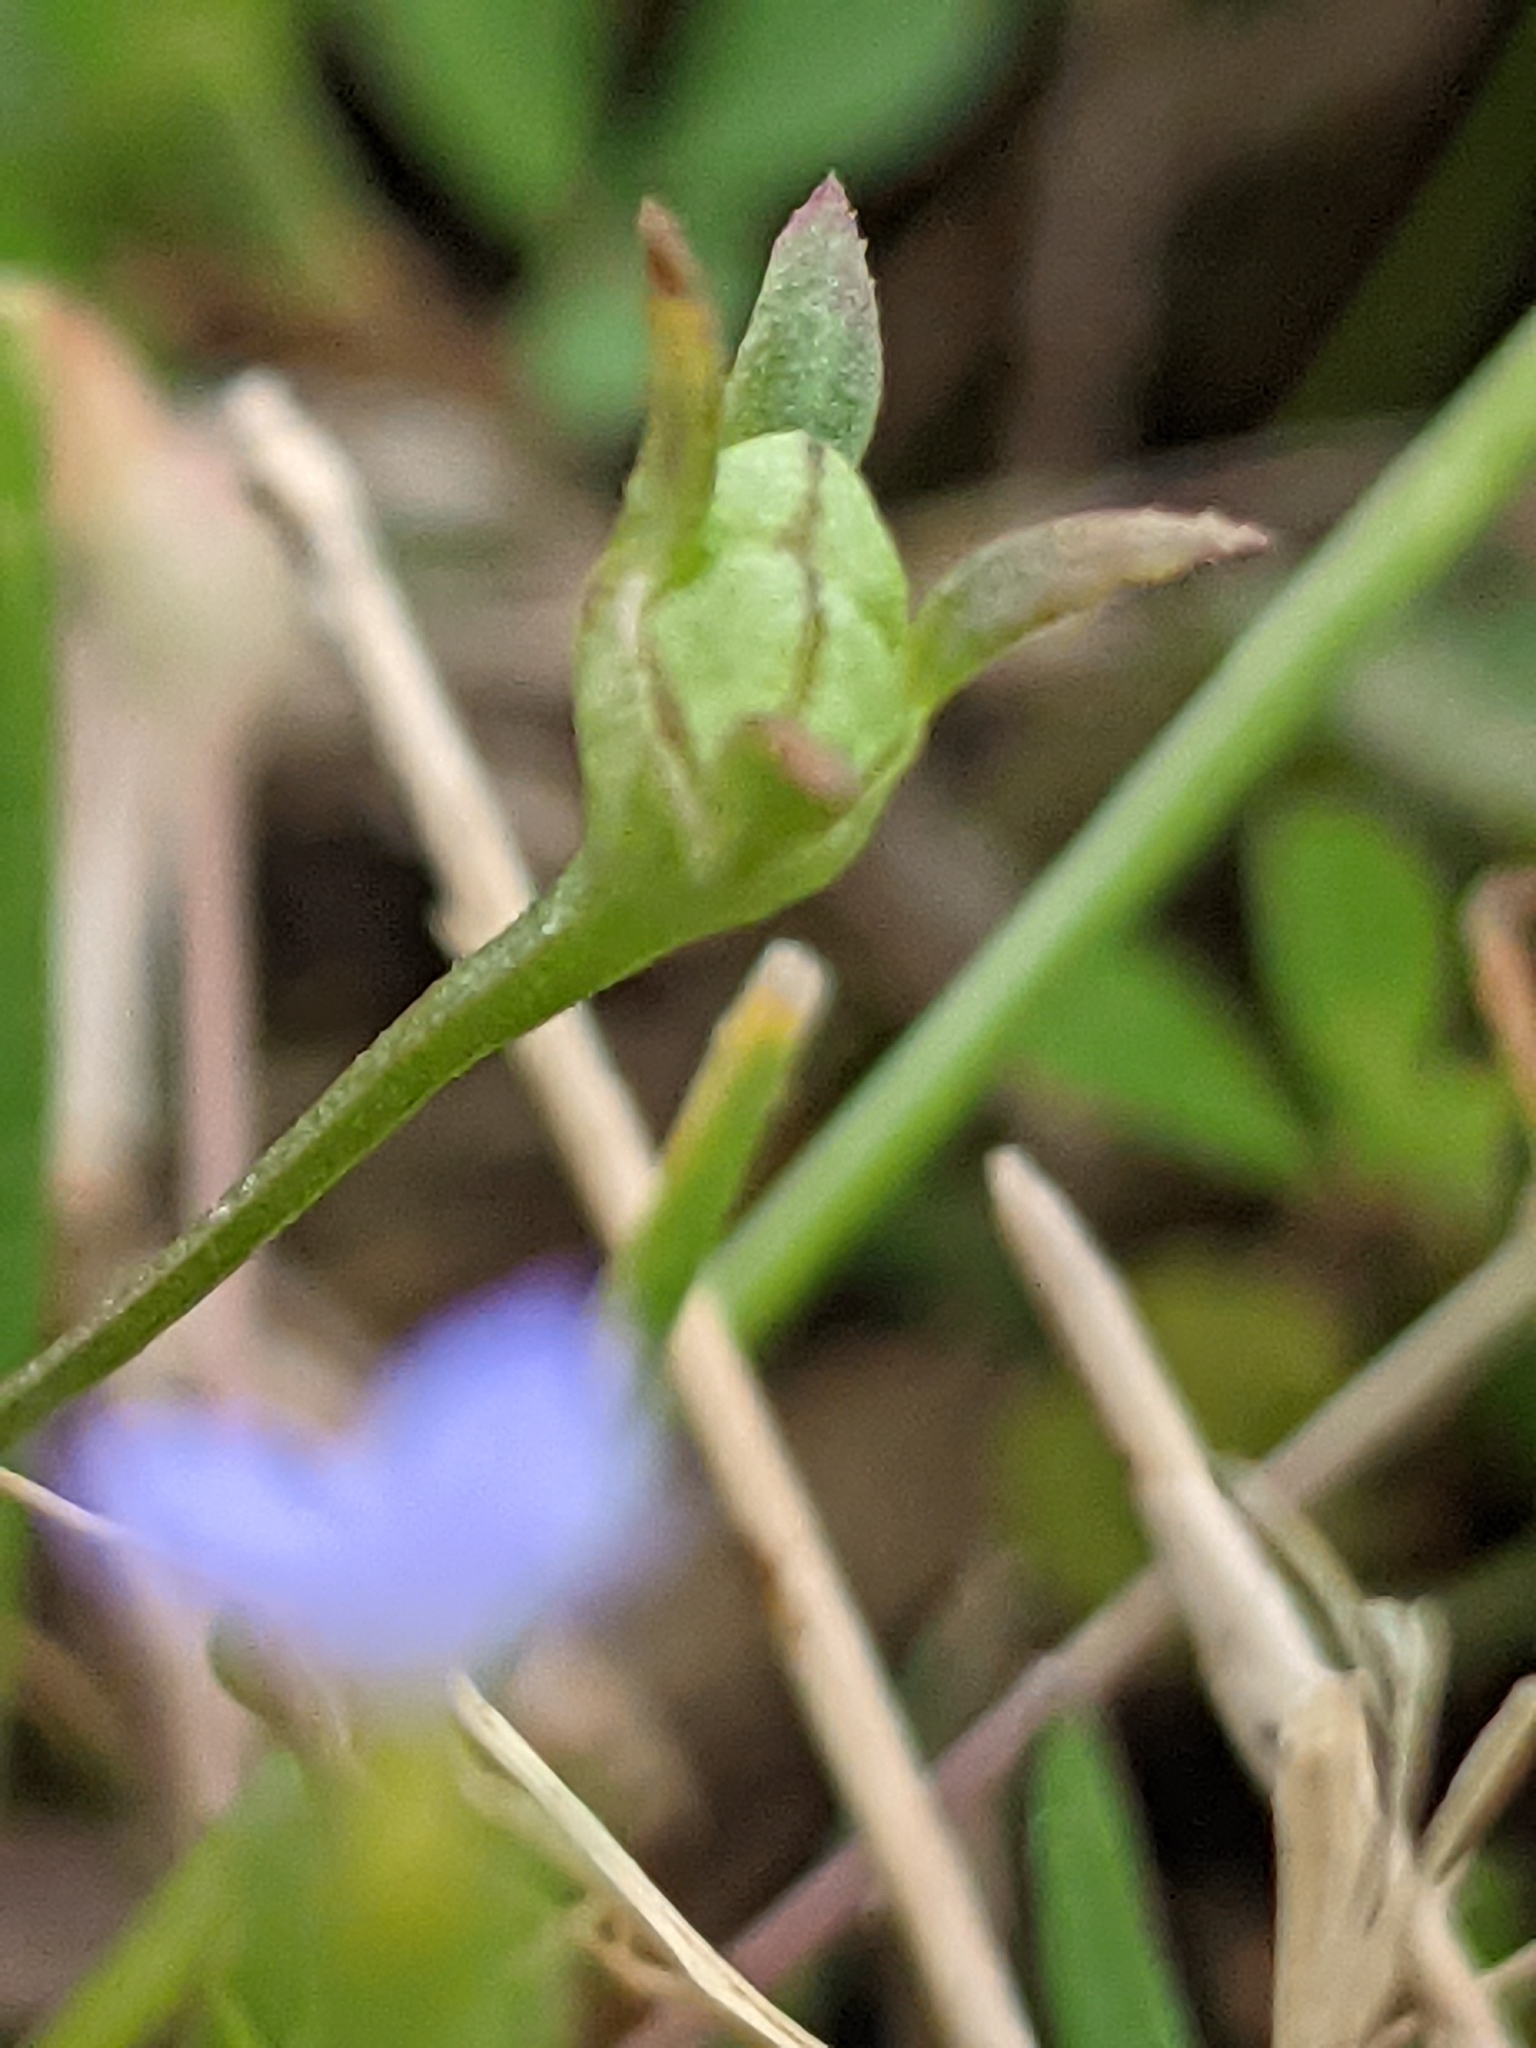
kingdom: Plantae
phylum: Tracheophyta
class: Magnoliopsida
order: Gentianales
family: Rubiaceae
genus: Houstonia
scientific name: Houstonia pusilla
